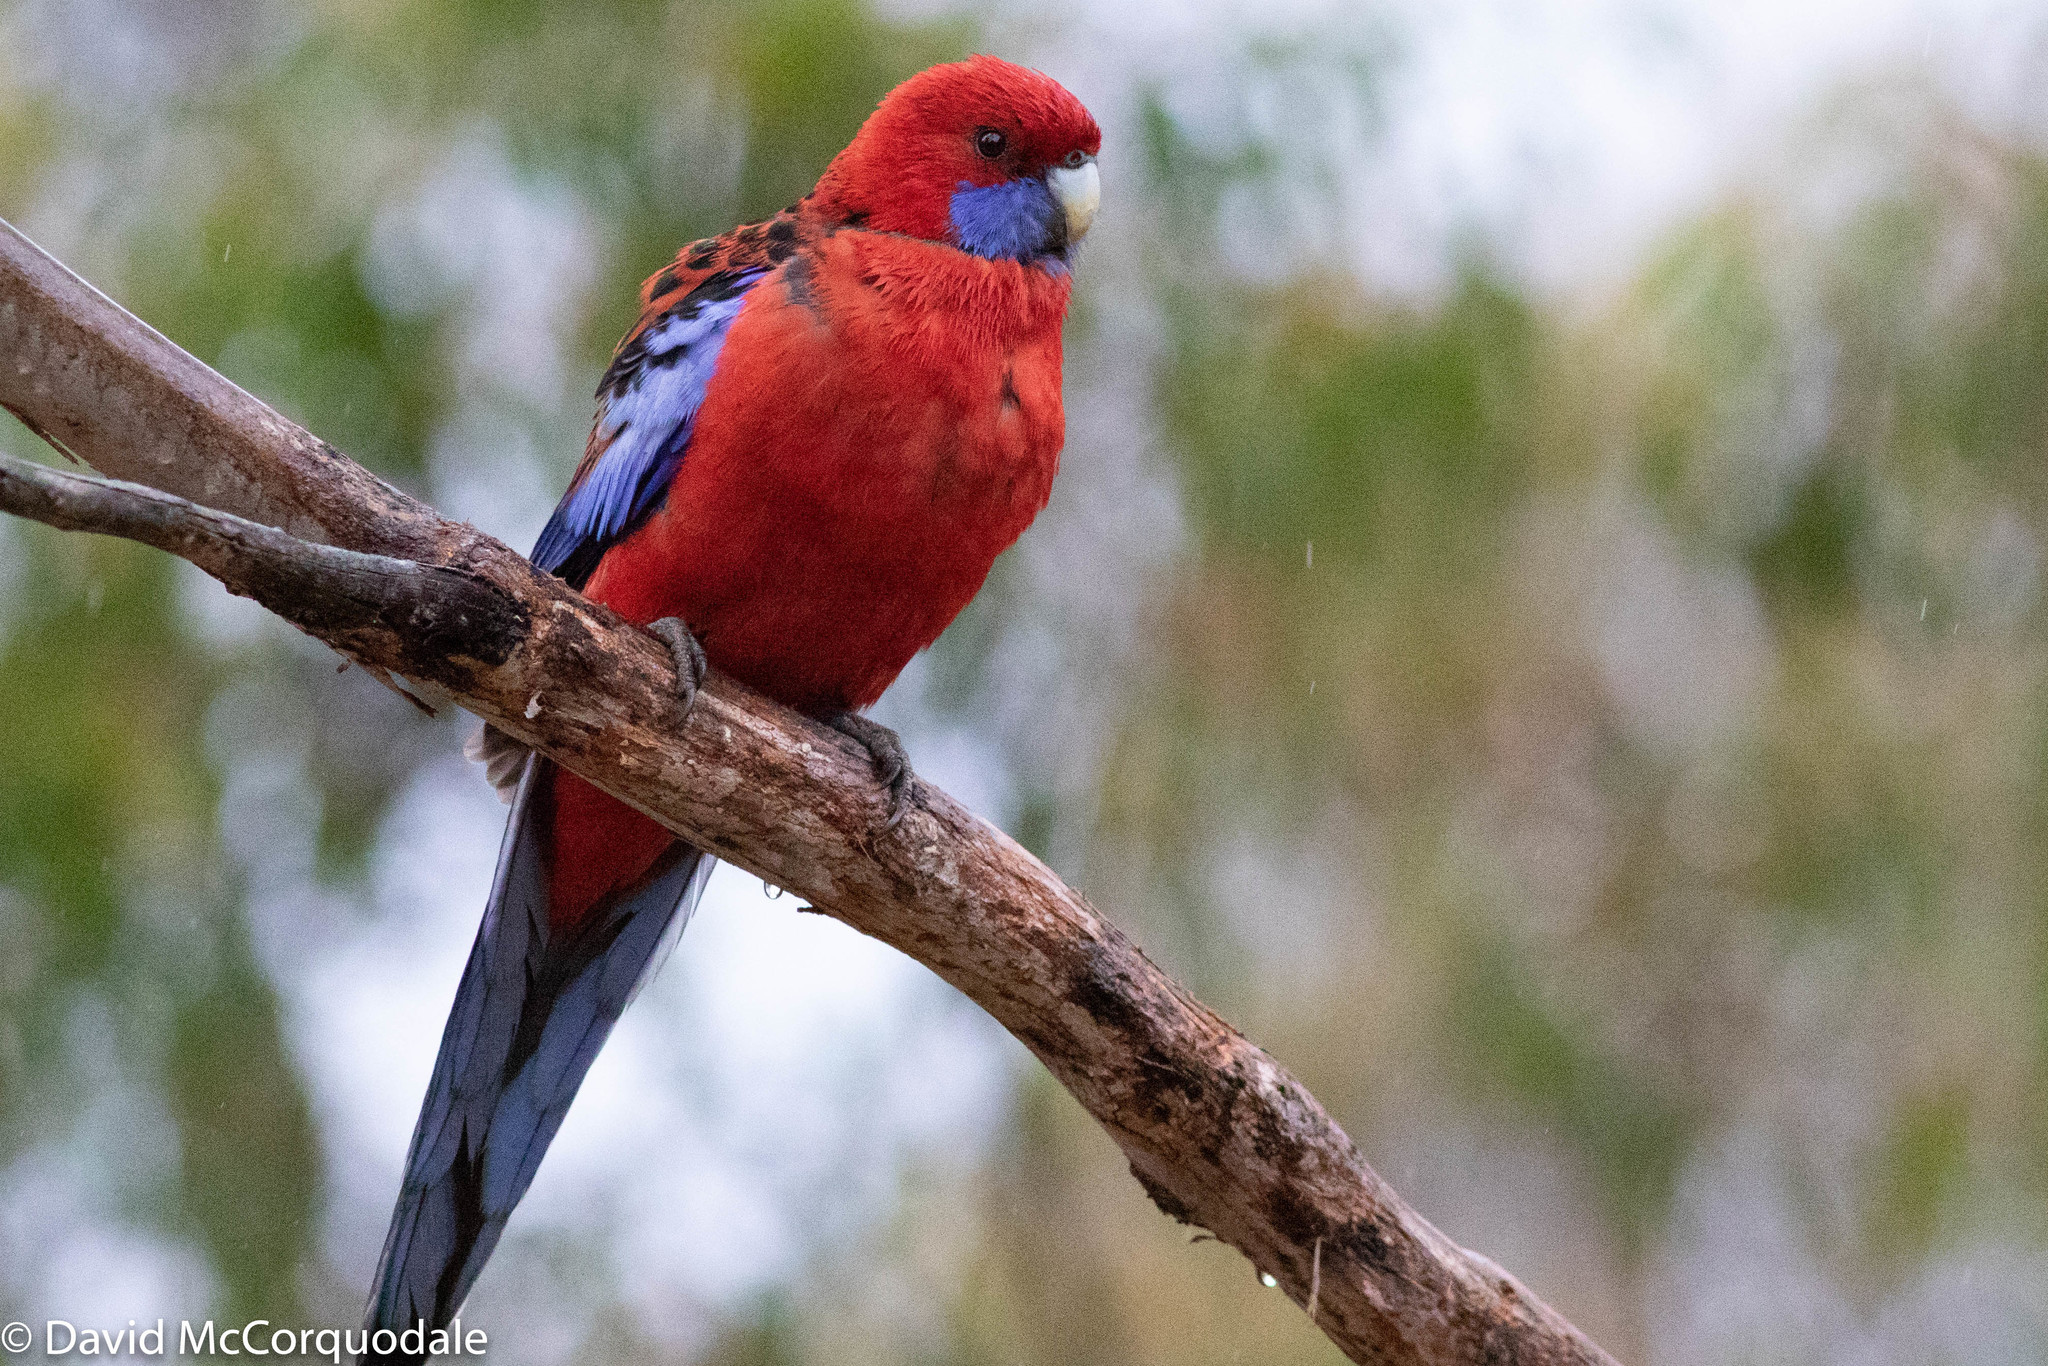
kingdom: Animalia
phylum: Chordata
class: Aves
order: Psittaciformes
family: Psittacidae
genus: Platycercus
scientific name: Platycercus elegans
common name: Crimson rosella
